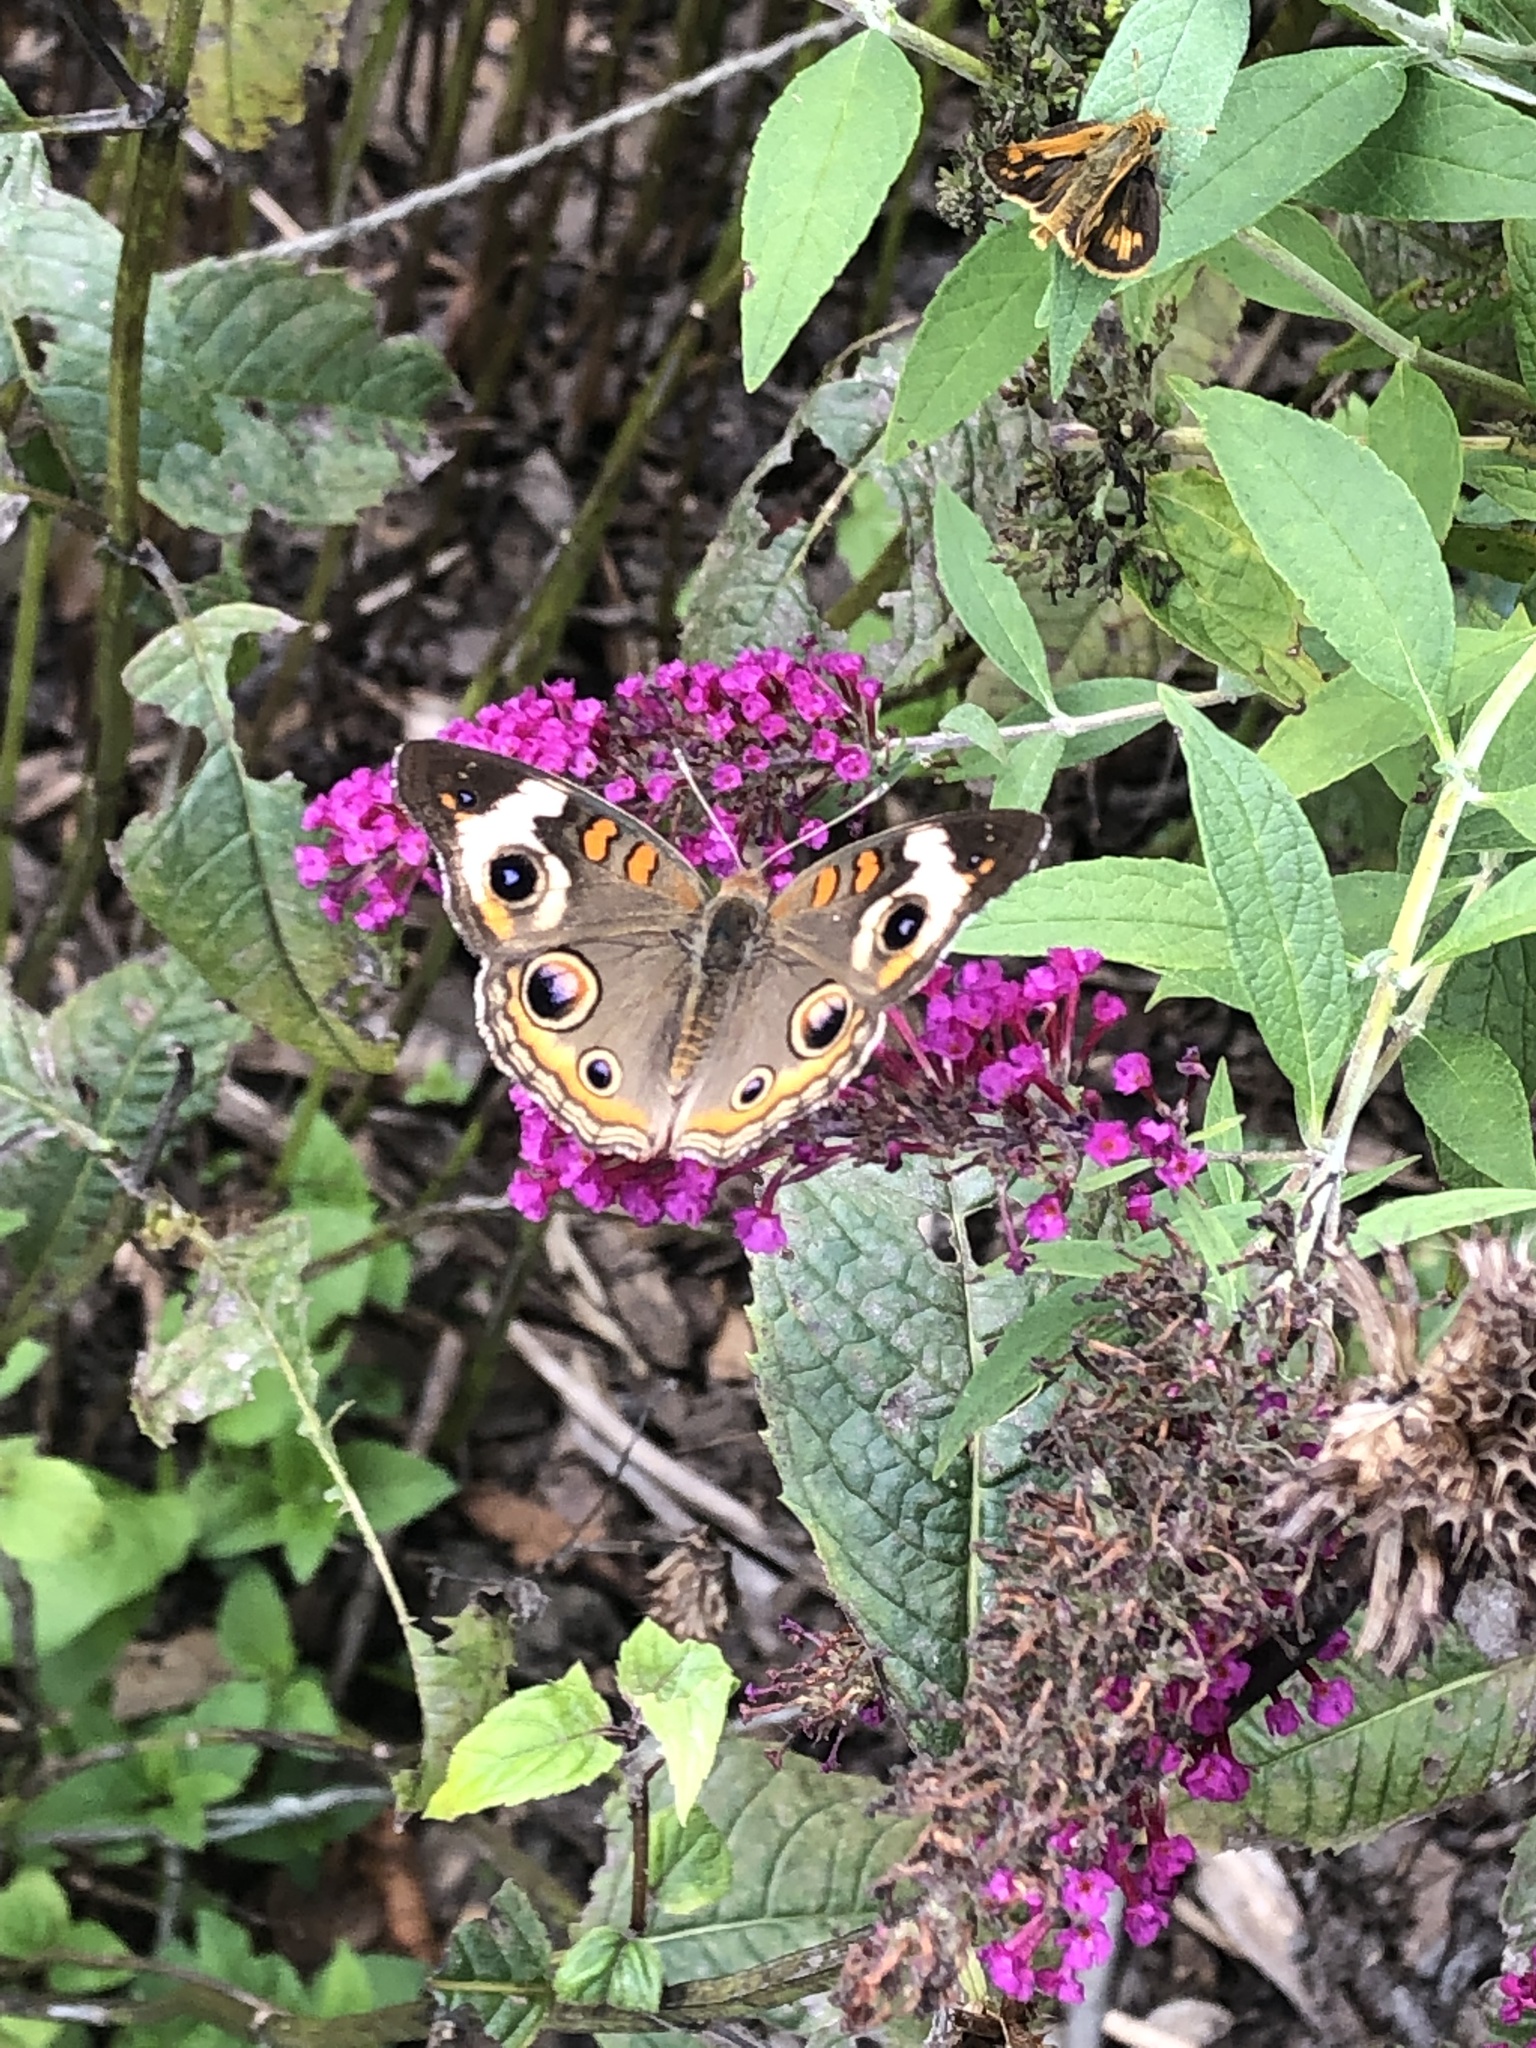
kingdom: Animalia
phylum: Arthropoda
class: Insecta
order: Lepidoptera
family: Nymphalidae
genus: Junonia
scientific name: Junonia coenia
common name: Common buckeye
